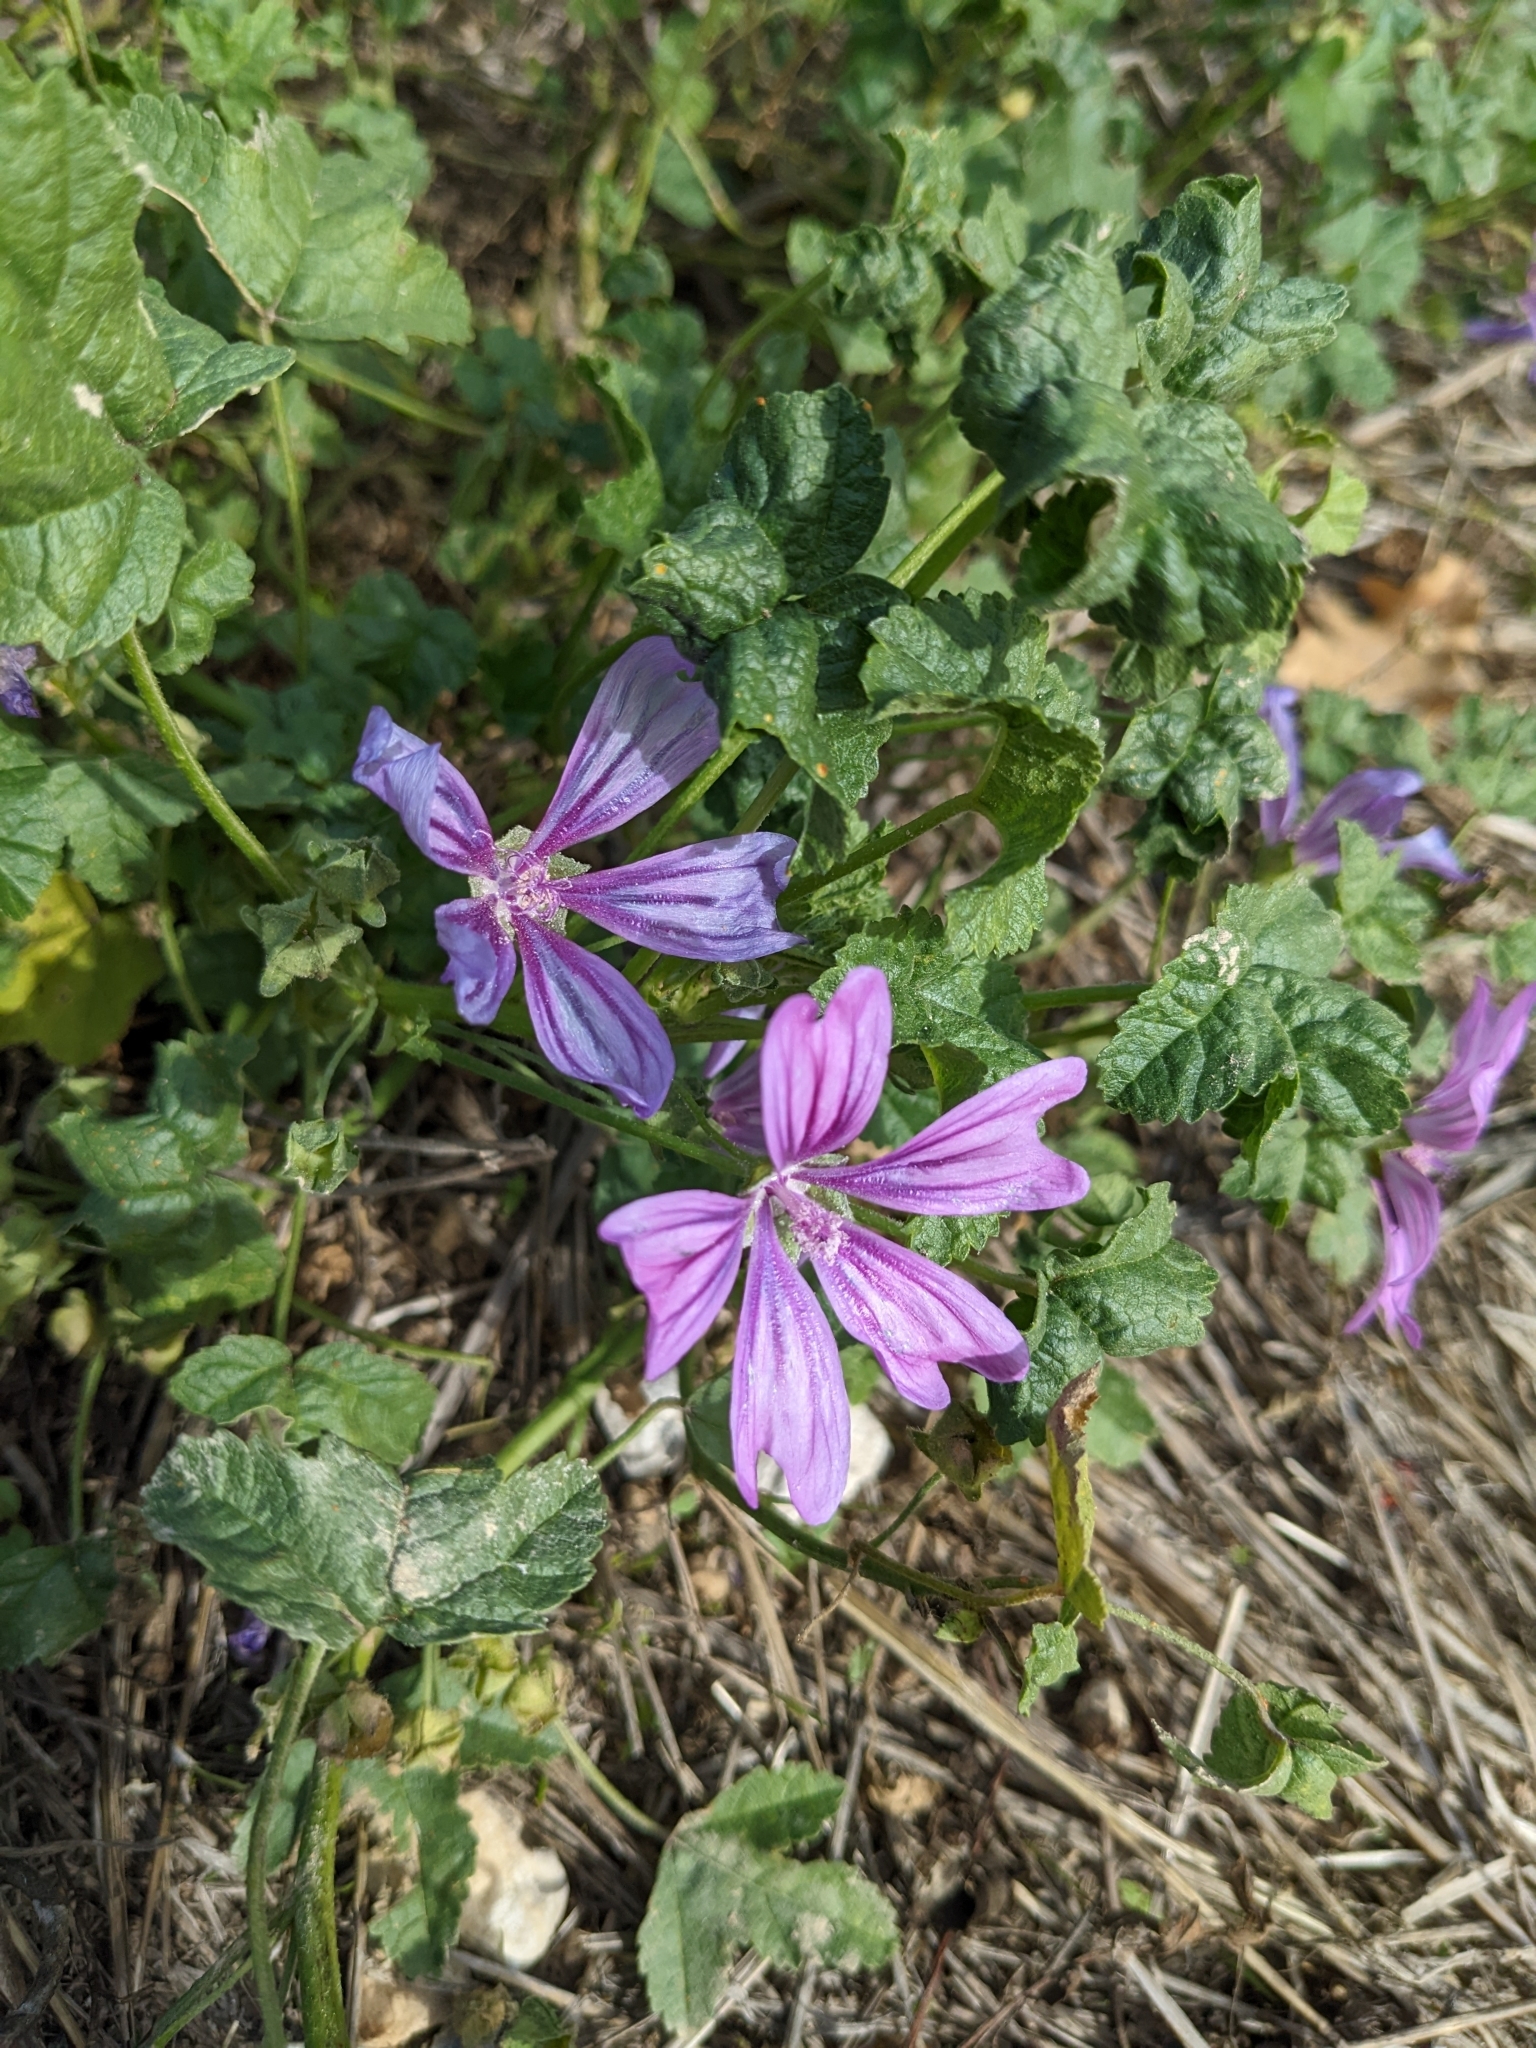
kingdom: Plantae
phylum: Tracheophyta
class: Magnoliopsida
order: Malvales
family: Malvaceae
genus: Malva
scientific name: Malva sylvestris
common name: Common mallow
